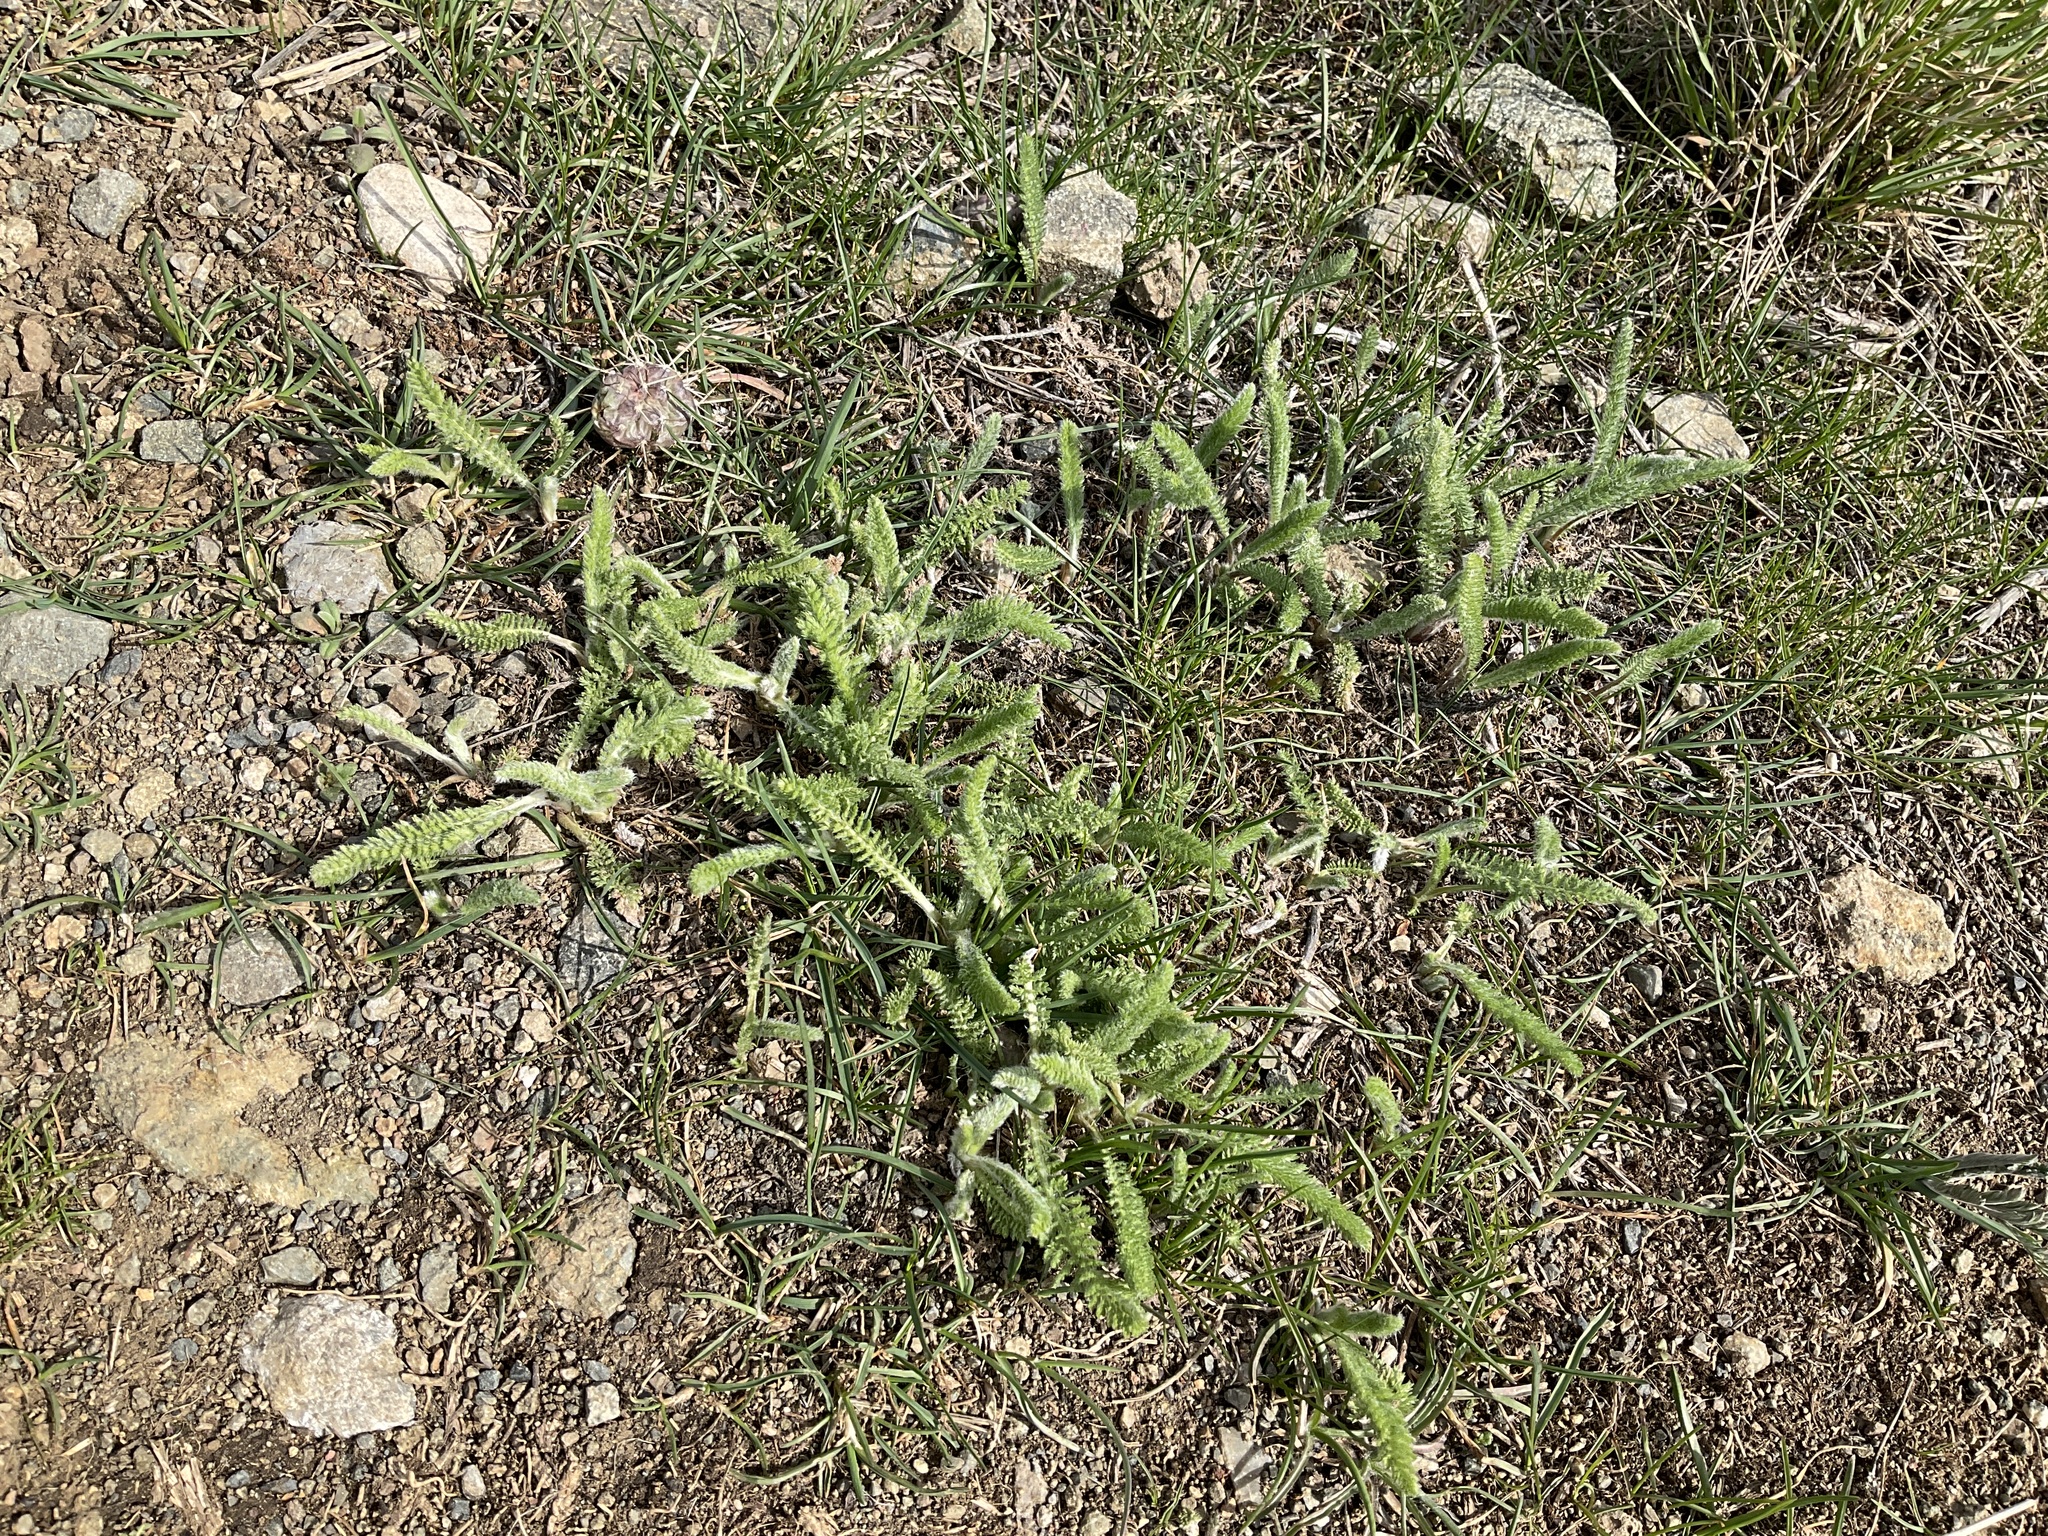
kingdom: Plantae
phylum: Tracheophyta
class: Magnoliopsida
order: Asterales
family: Asteraceae
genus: Achillea
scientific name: Achillea millefolium
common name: Yarrow
